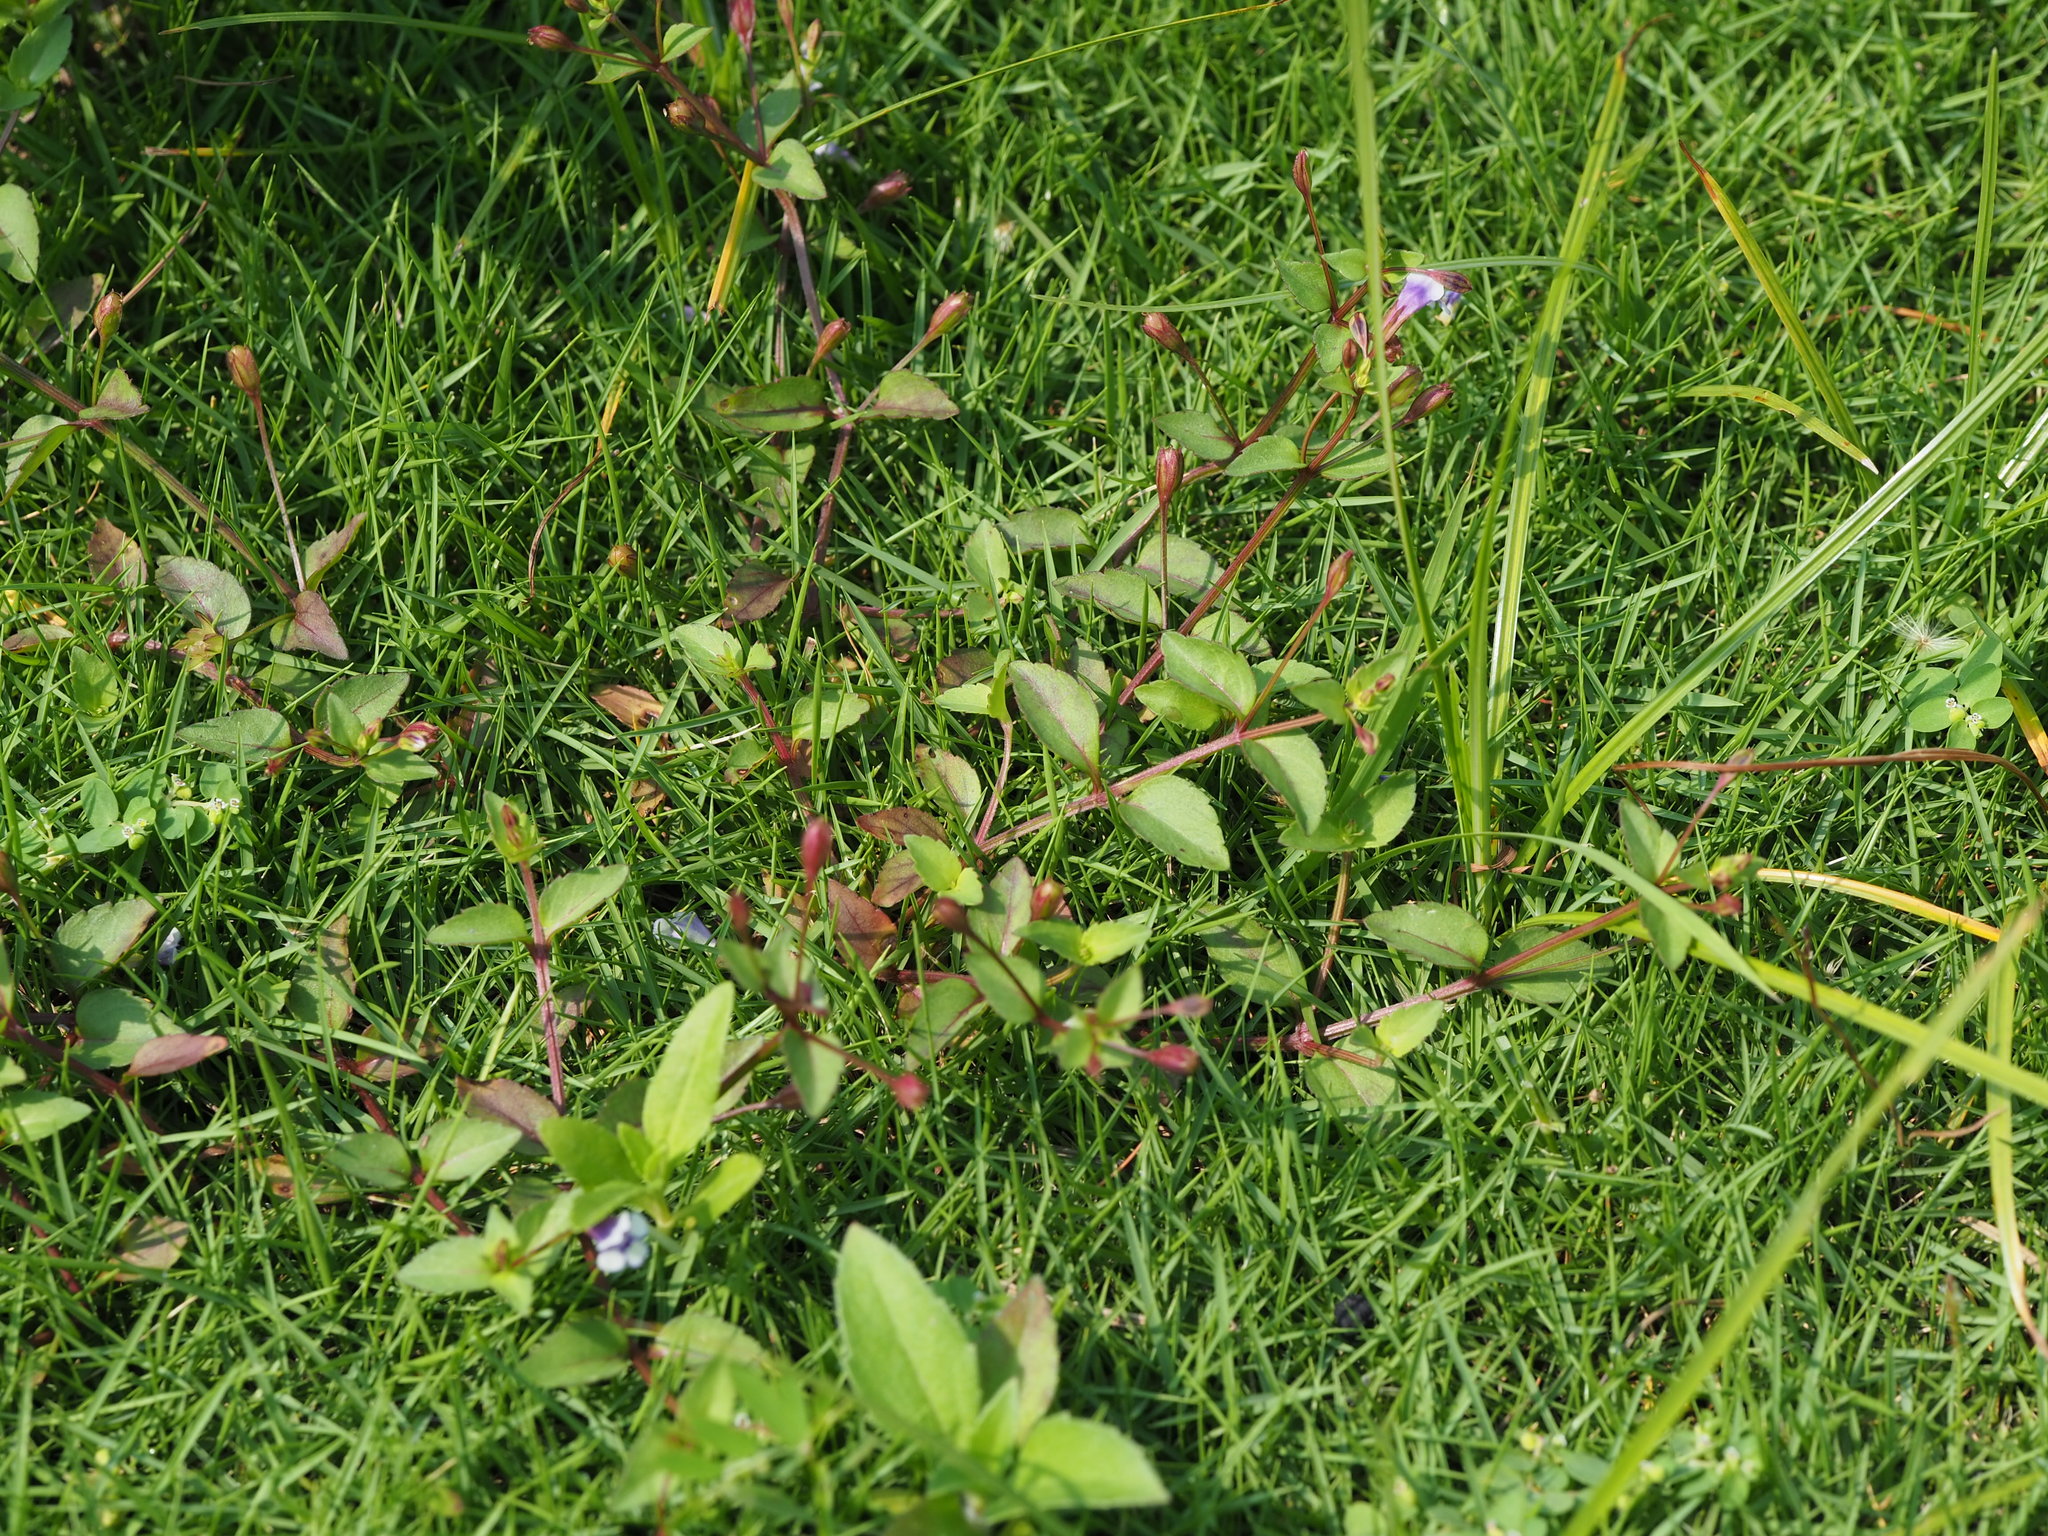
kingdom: Plantae
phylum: Tracheophyta
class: Magnoliopsida
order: Lamiales
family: Linderniaceae
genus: Torenia
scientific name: Torenia crustacea
